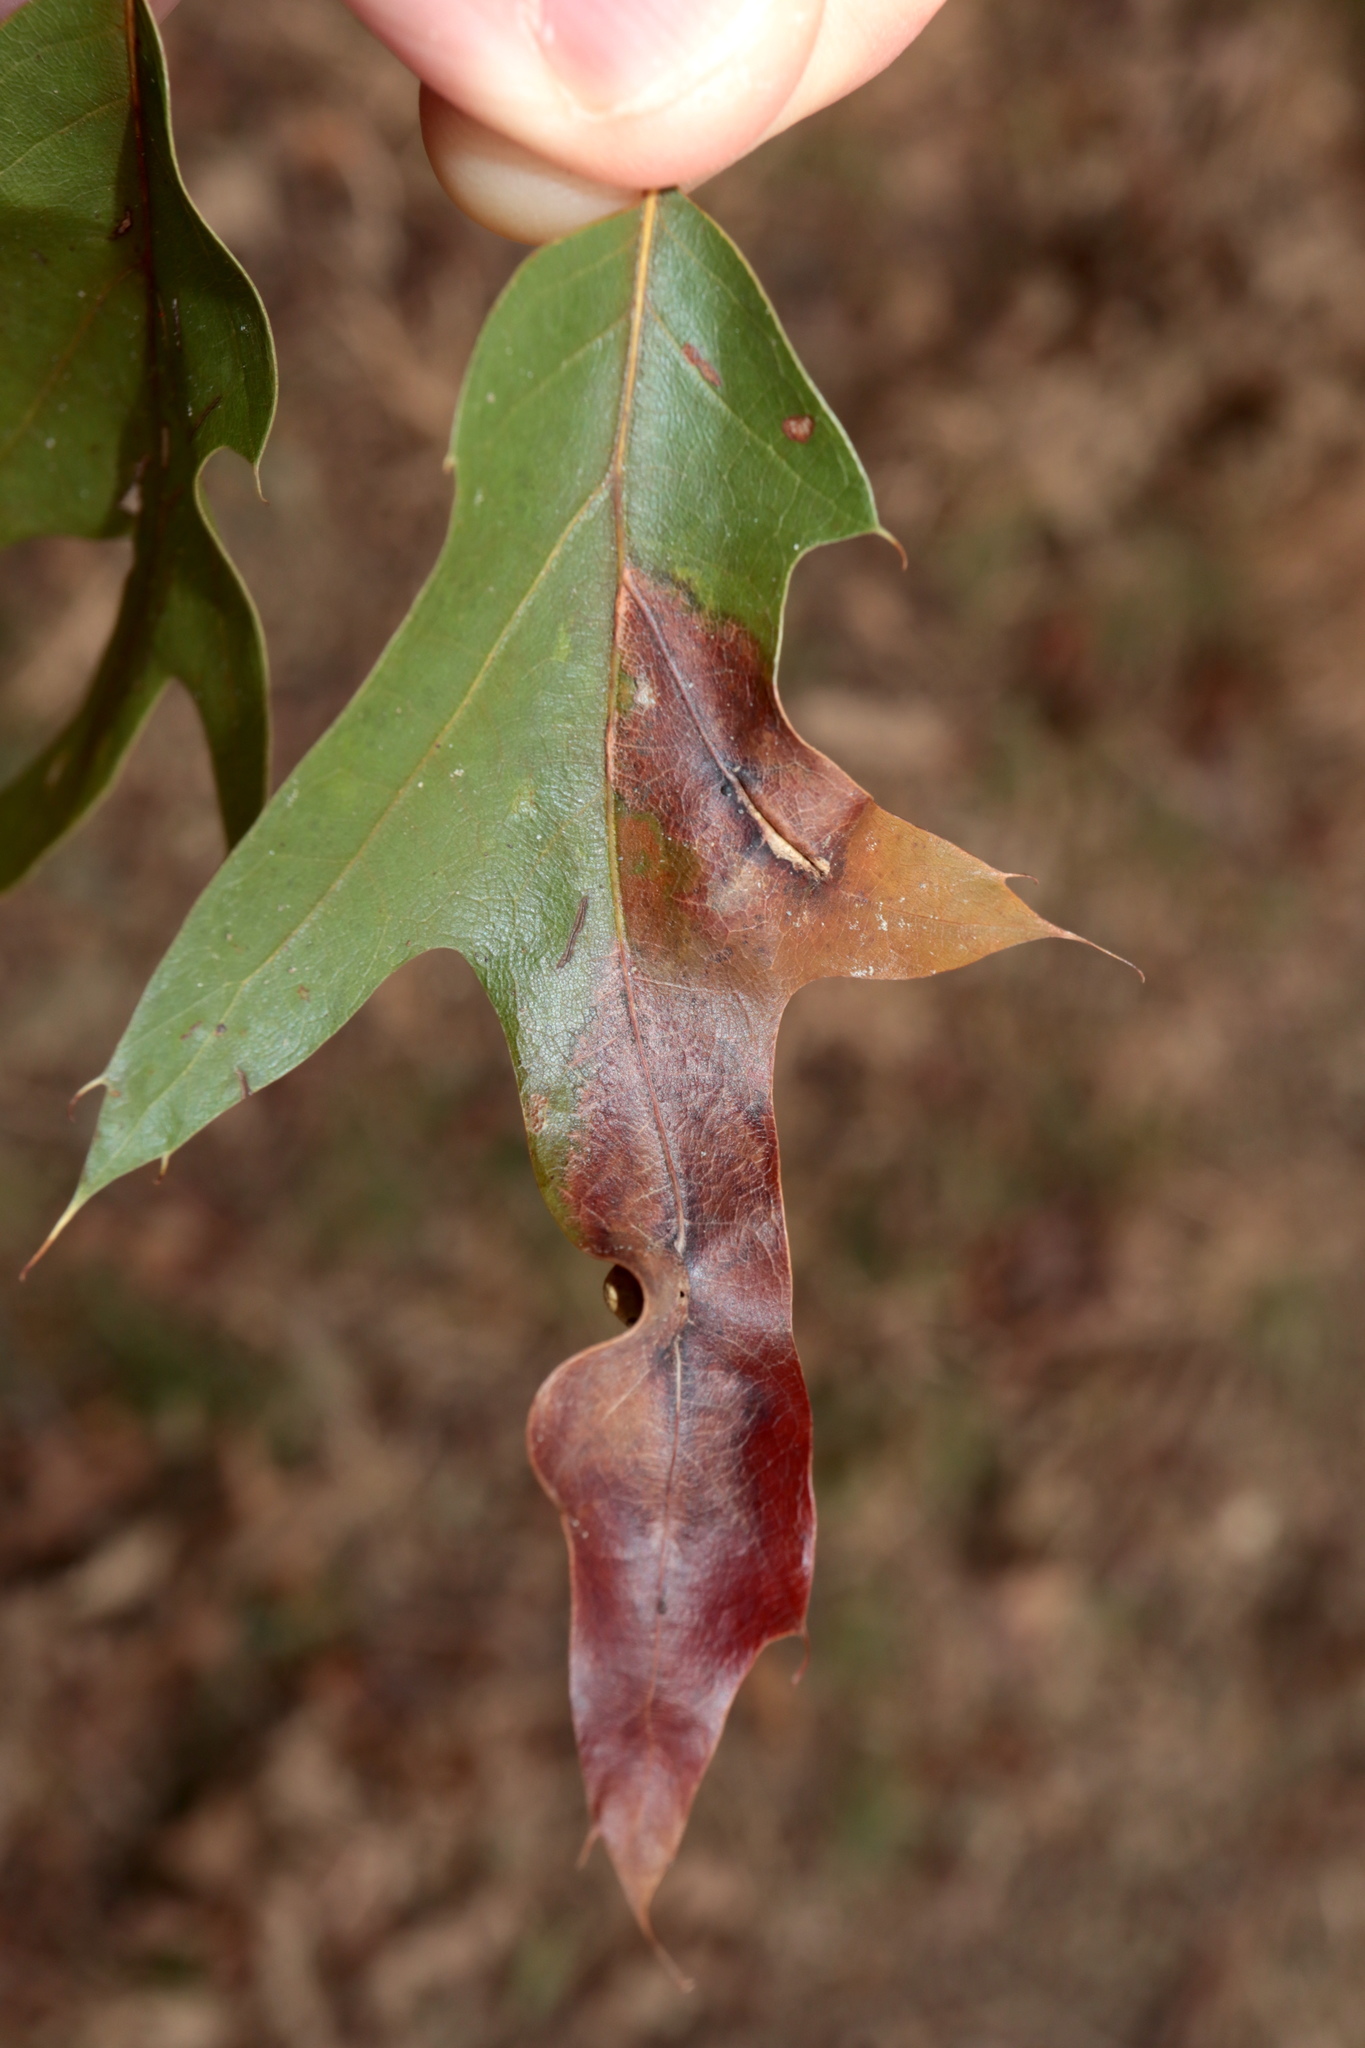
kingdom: Animalia
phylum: Arthropoda
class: Insecta
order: Diptera
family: Cecidomyiidae
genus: Macrodiplosis
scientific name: Macrodiplosis majalis
